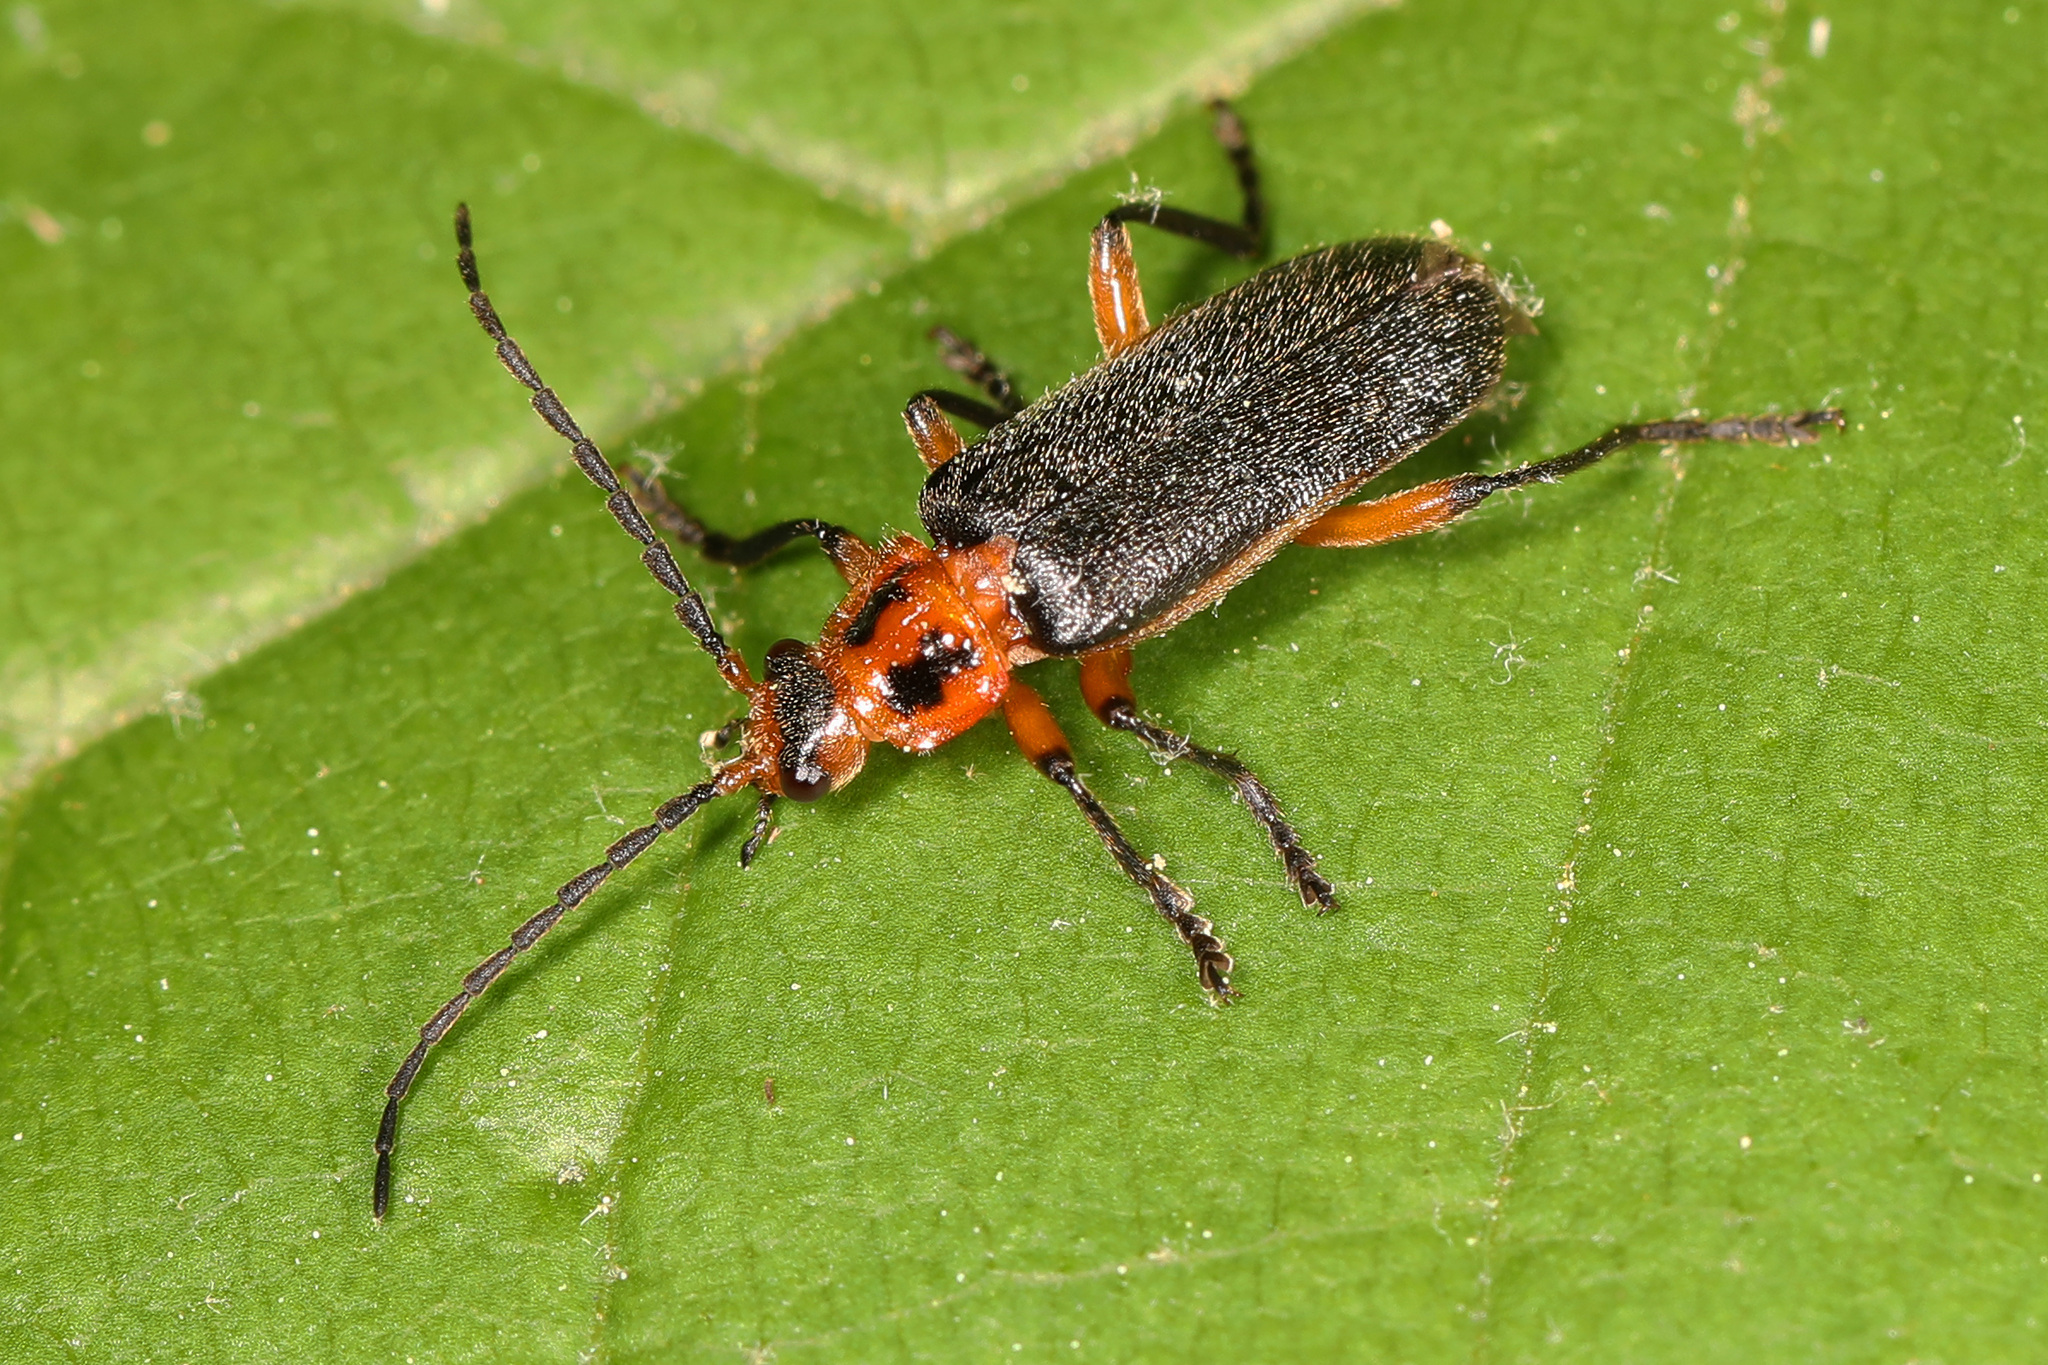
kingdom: Animalia
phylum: Arthropoda
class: Insecta
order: Coleoptera
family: Cantharidae
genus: Atalantycha
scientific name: Atalantycha bilineata
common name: Two-lined leatherwing
